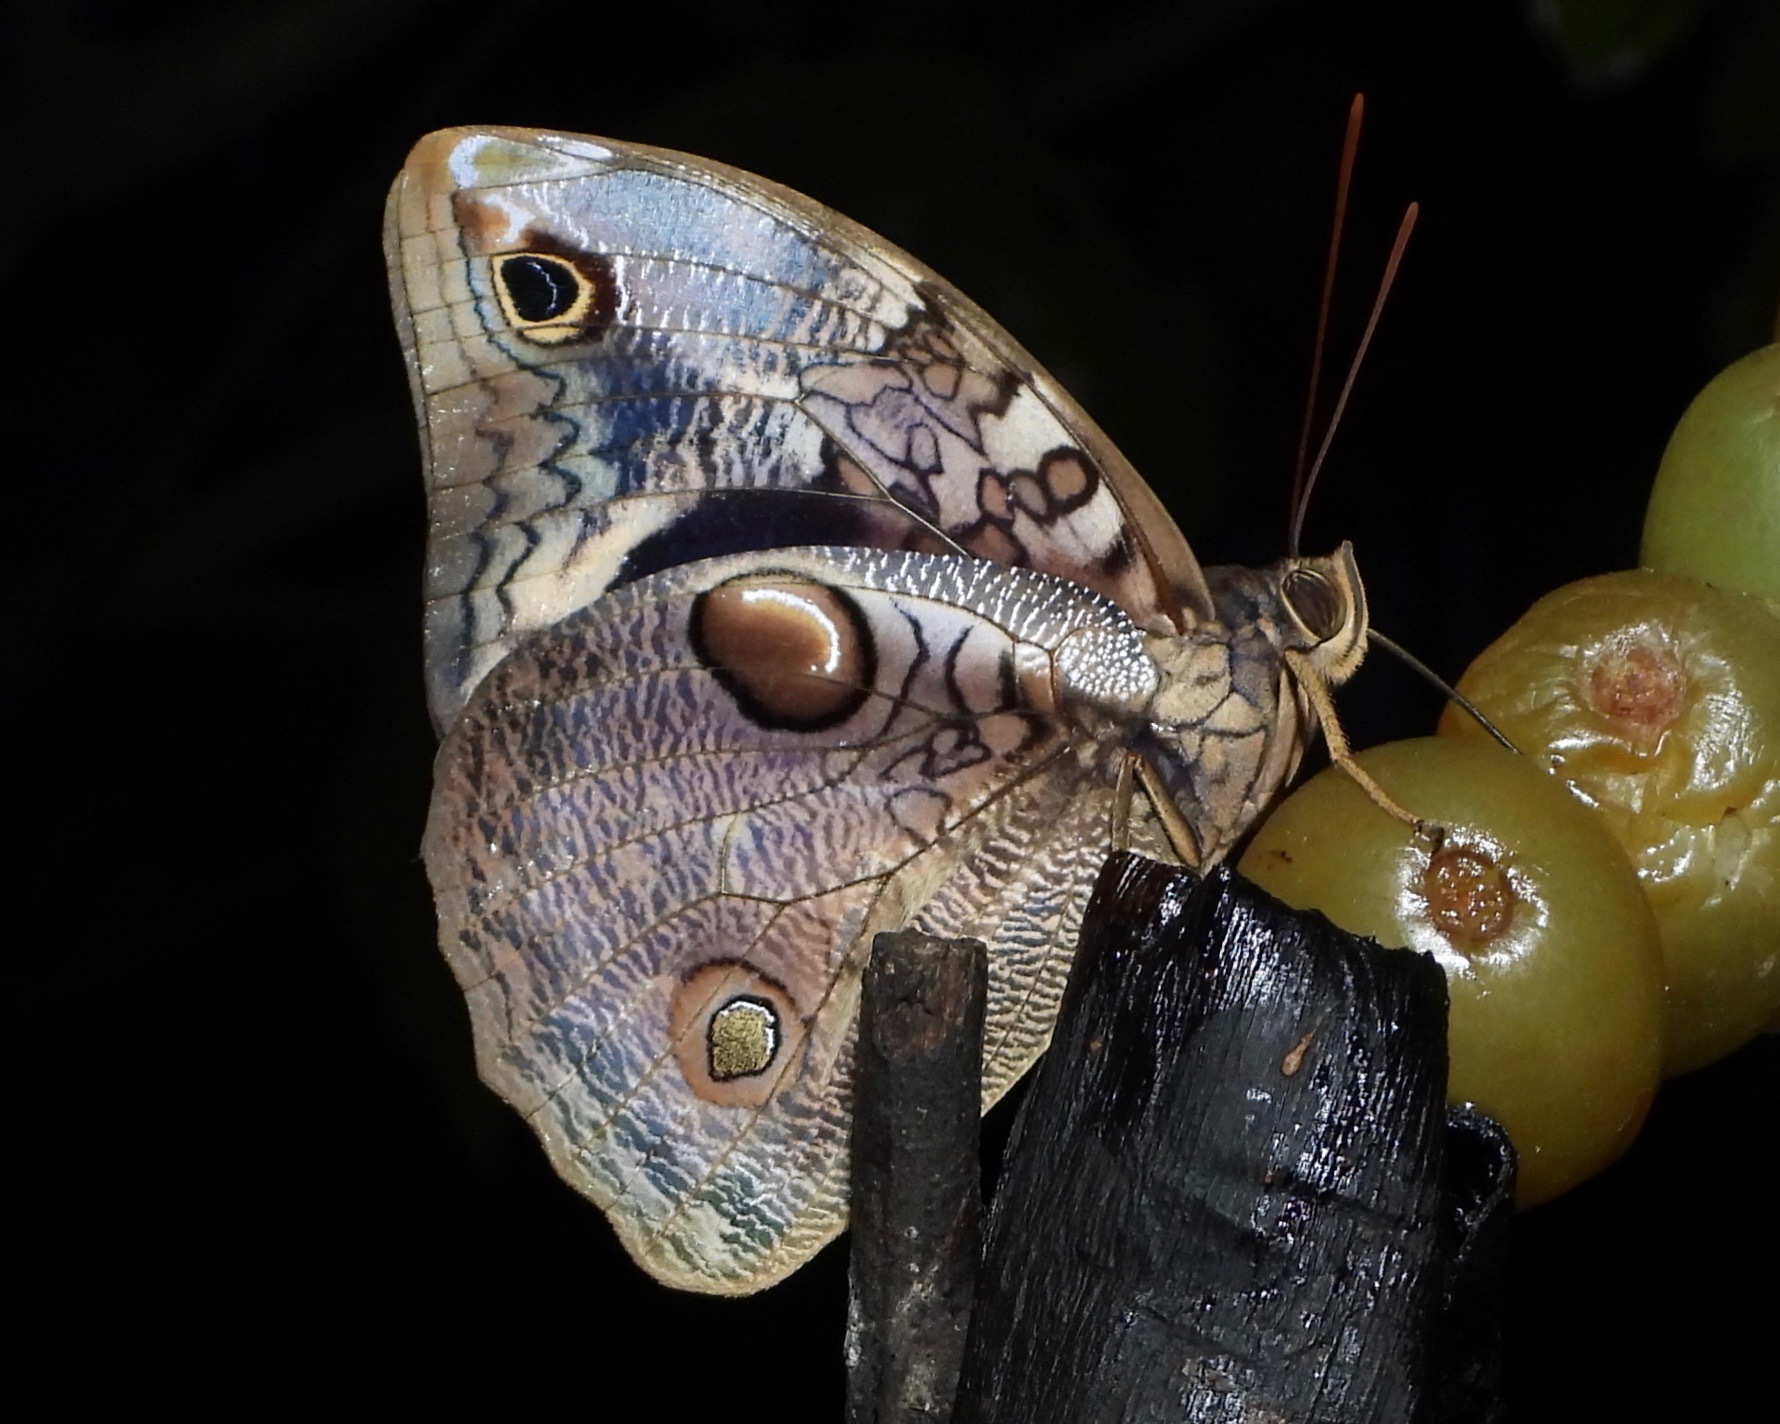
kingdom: Animalia
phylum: Arthropoda
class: Insecta
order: Lepidoptera
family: Nymphalidae
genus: Opsiphanes
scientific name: Opsiphanes cassina
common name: Split-banded owl-butterfly
